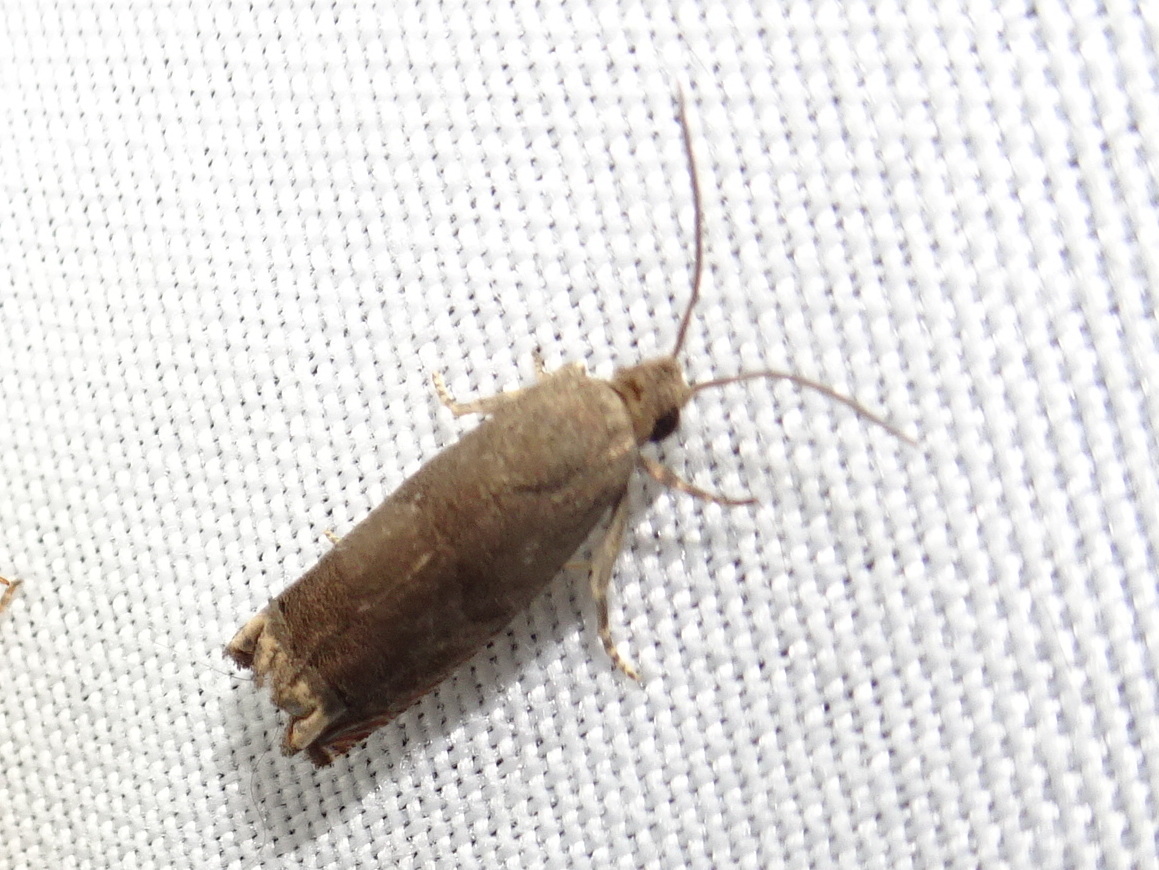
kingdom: Animalia
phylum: Arthropoda
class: Insecta
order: Lepidoptera
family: Tortricidae
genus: Epiblema
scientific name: Epiblema strenuana
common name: Ragweed borer moth
